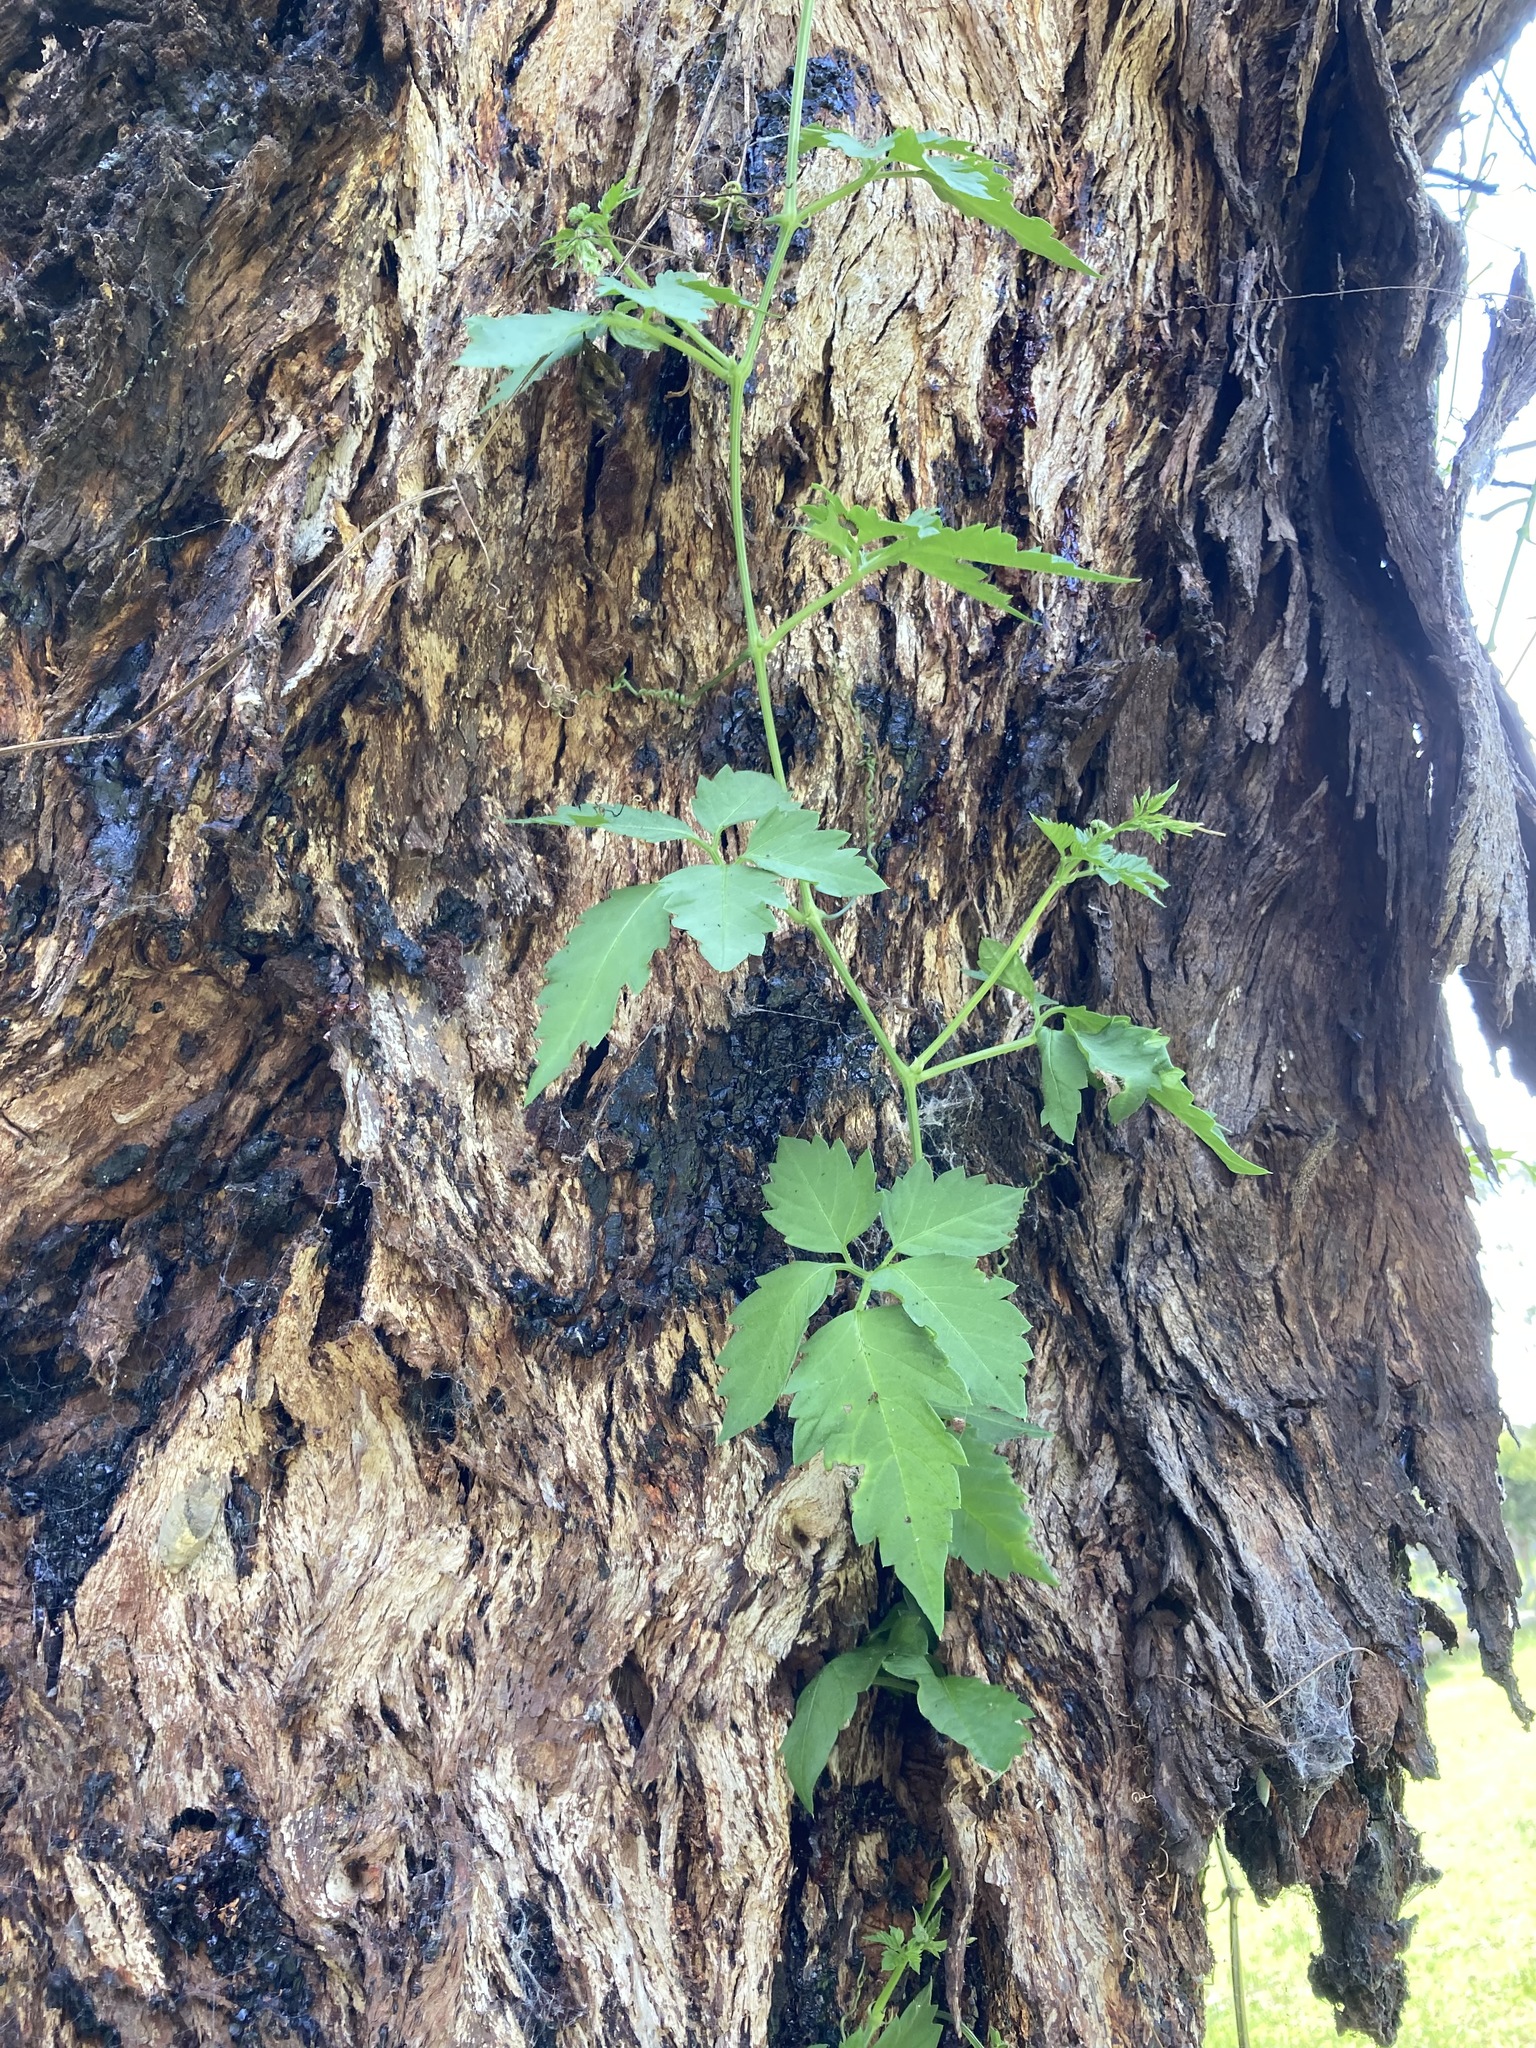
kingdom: Plantae
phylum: Tracheophyta
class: Magnoliopsida
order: Vitales
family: Vitaceae
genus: Causonis
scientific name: Causonis clematidea
